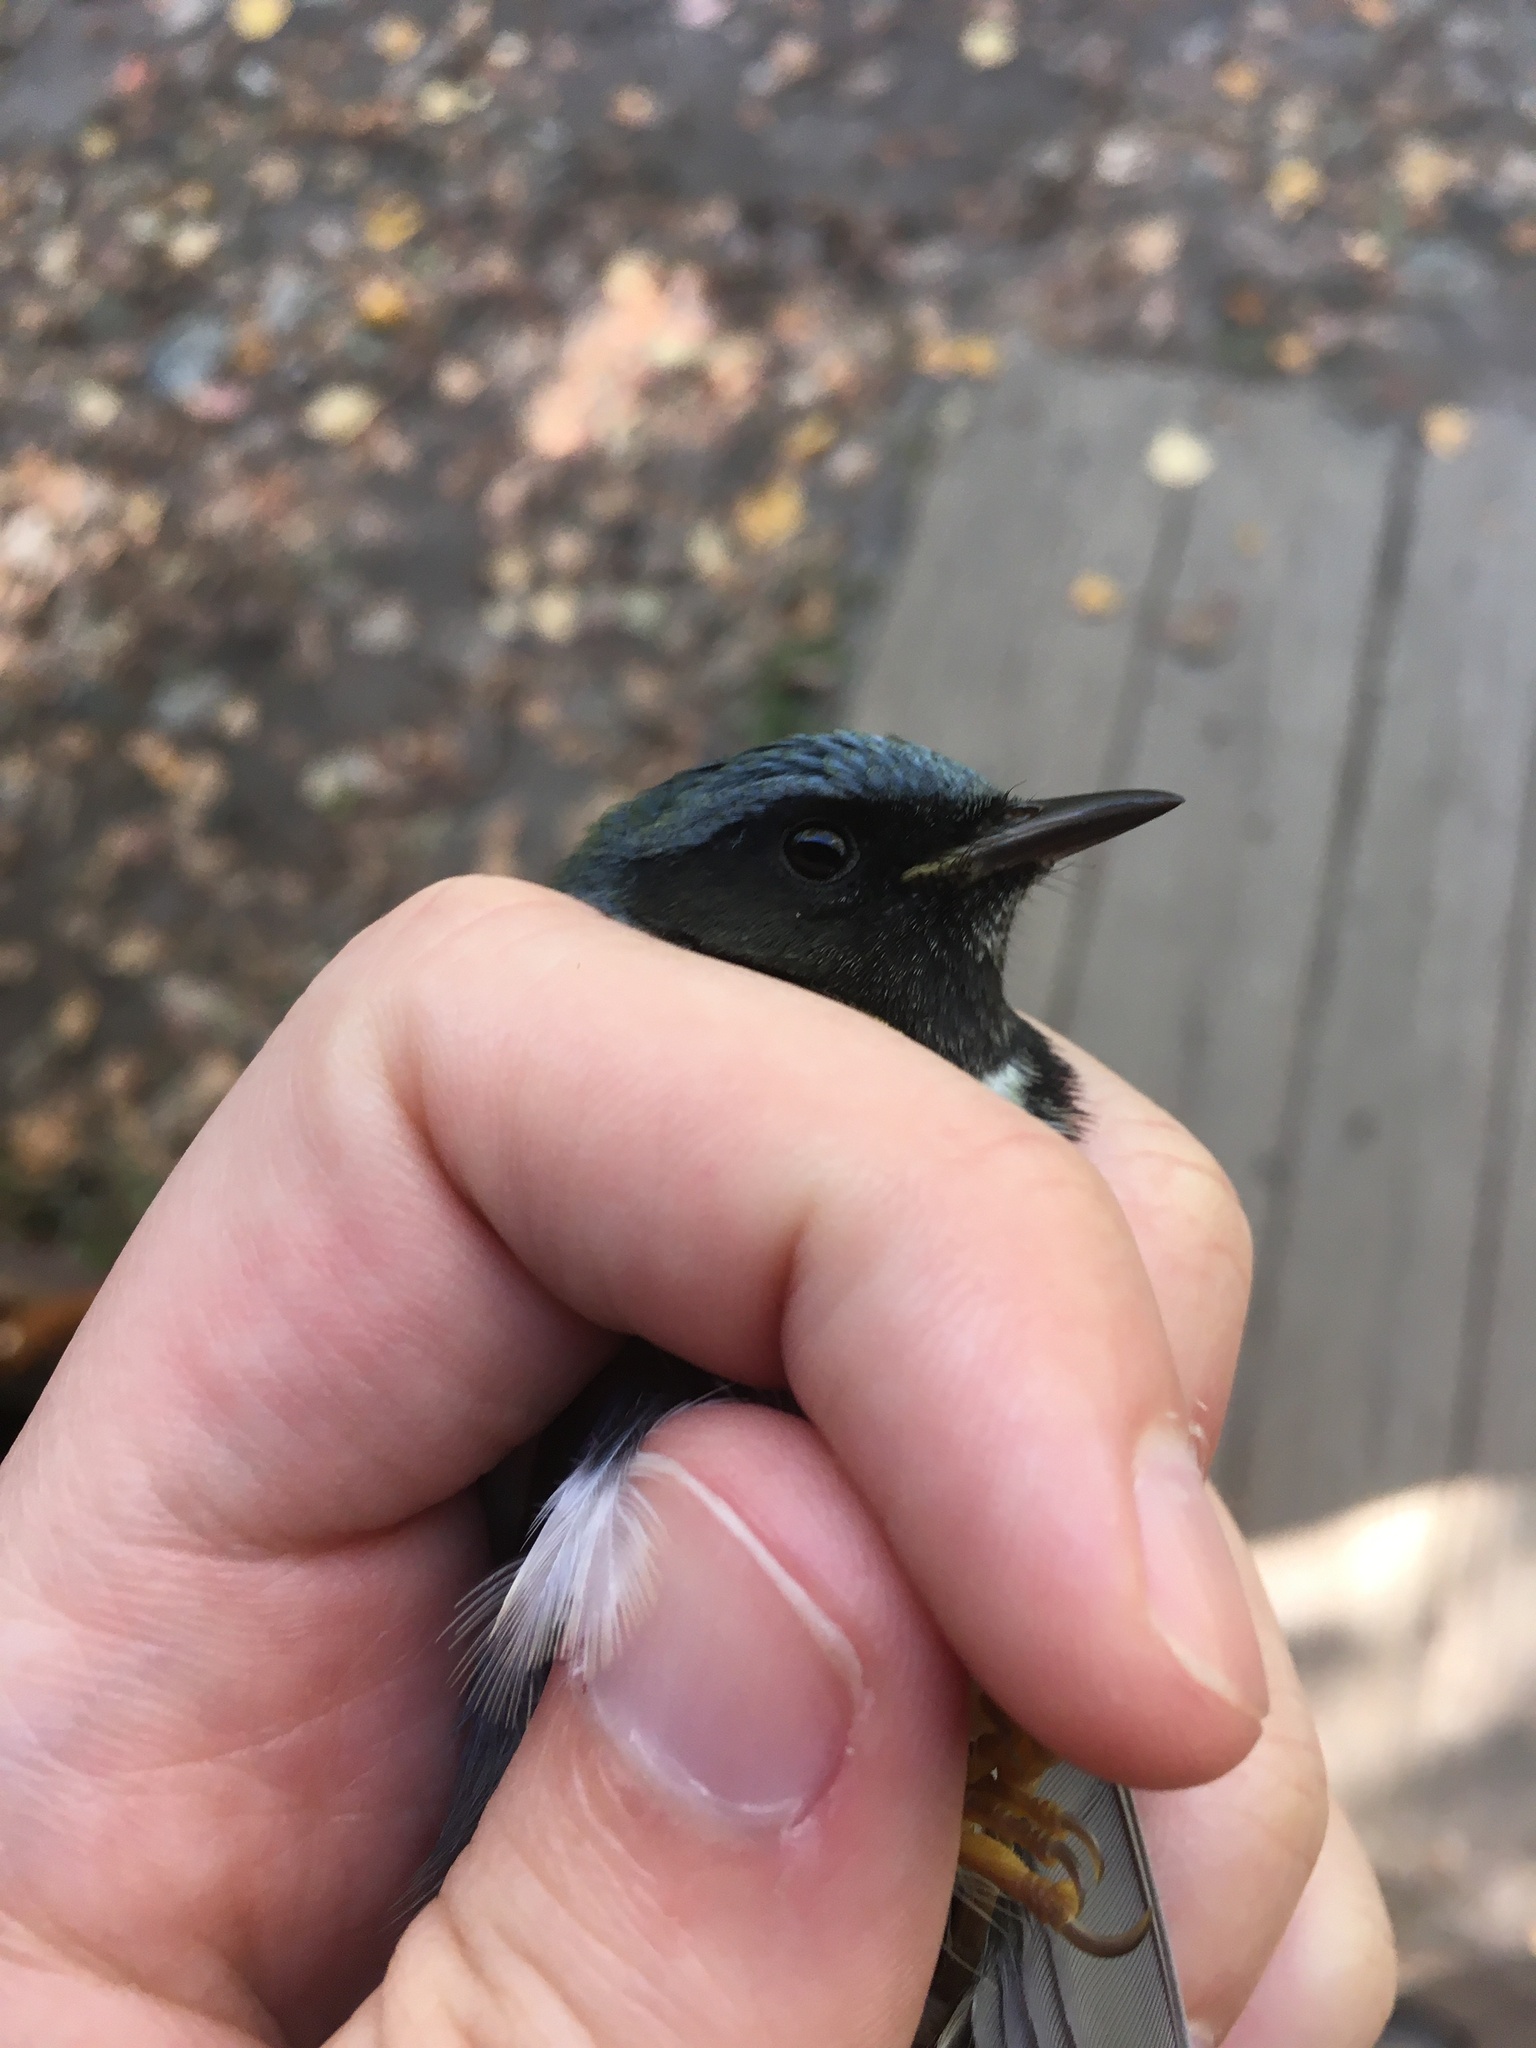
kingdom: Animalia
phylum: Chordata
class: Aves
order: Passeriformes
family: Parulidae
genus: Setophaga
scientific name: Setophaga caerulescens
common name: Black-throated blue warbler
